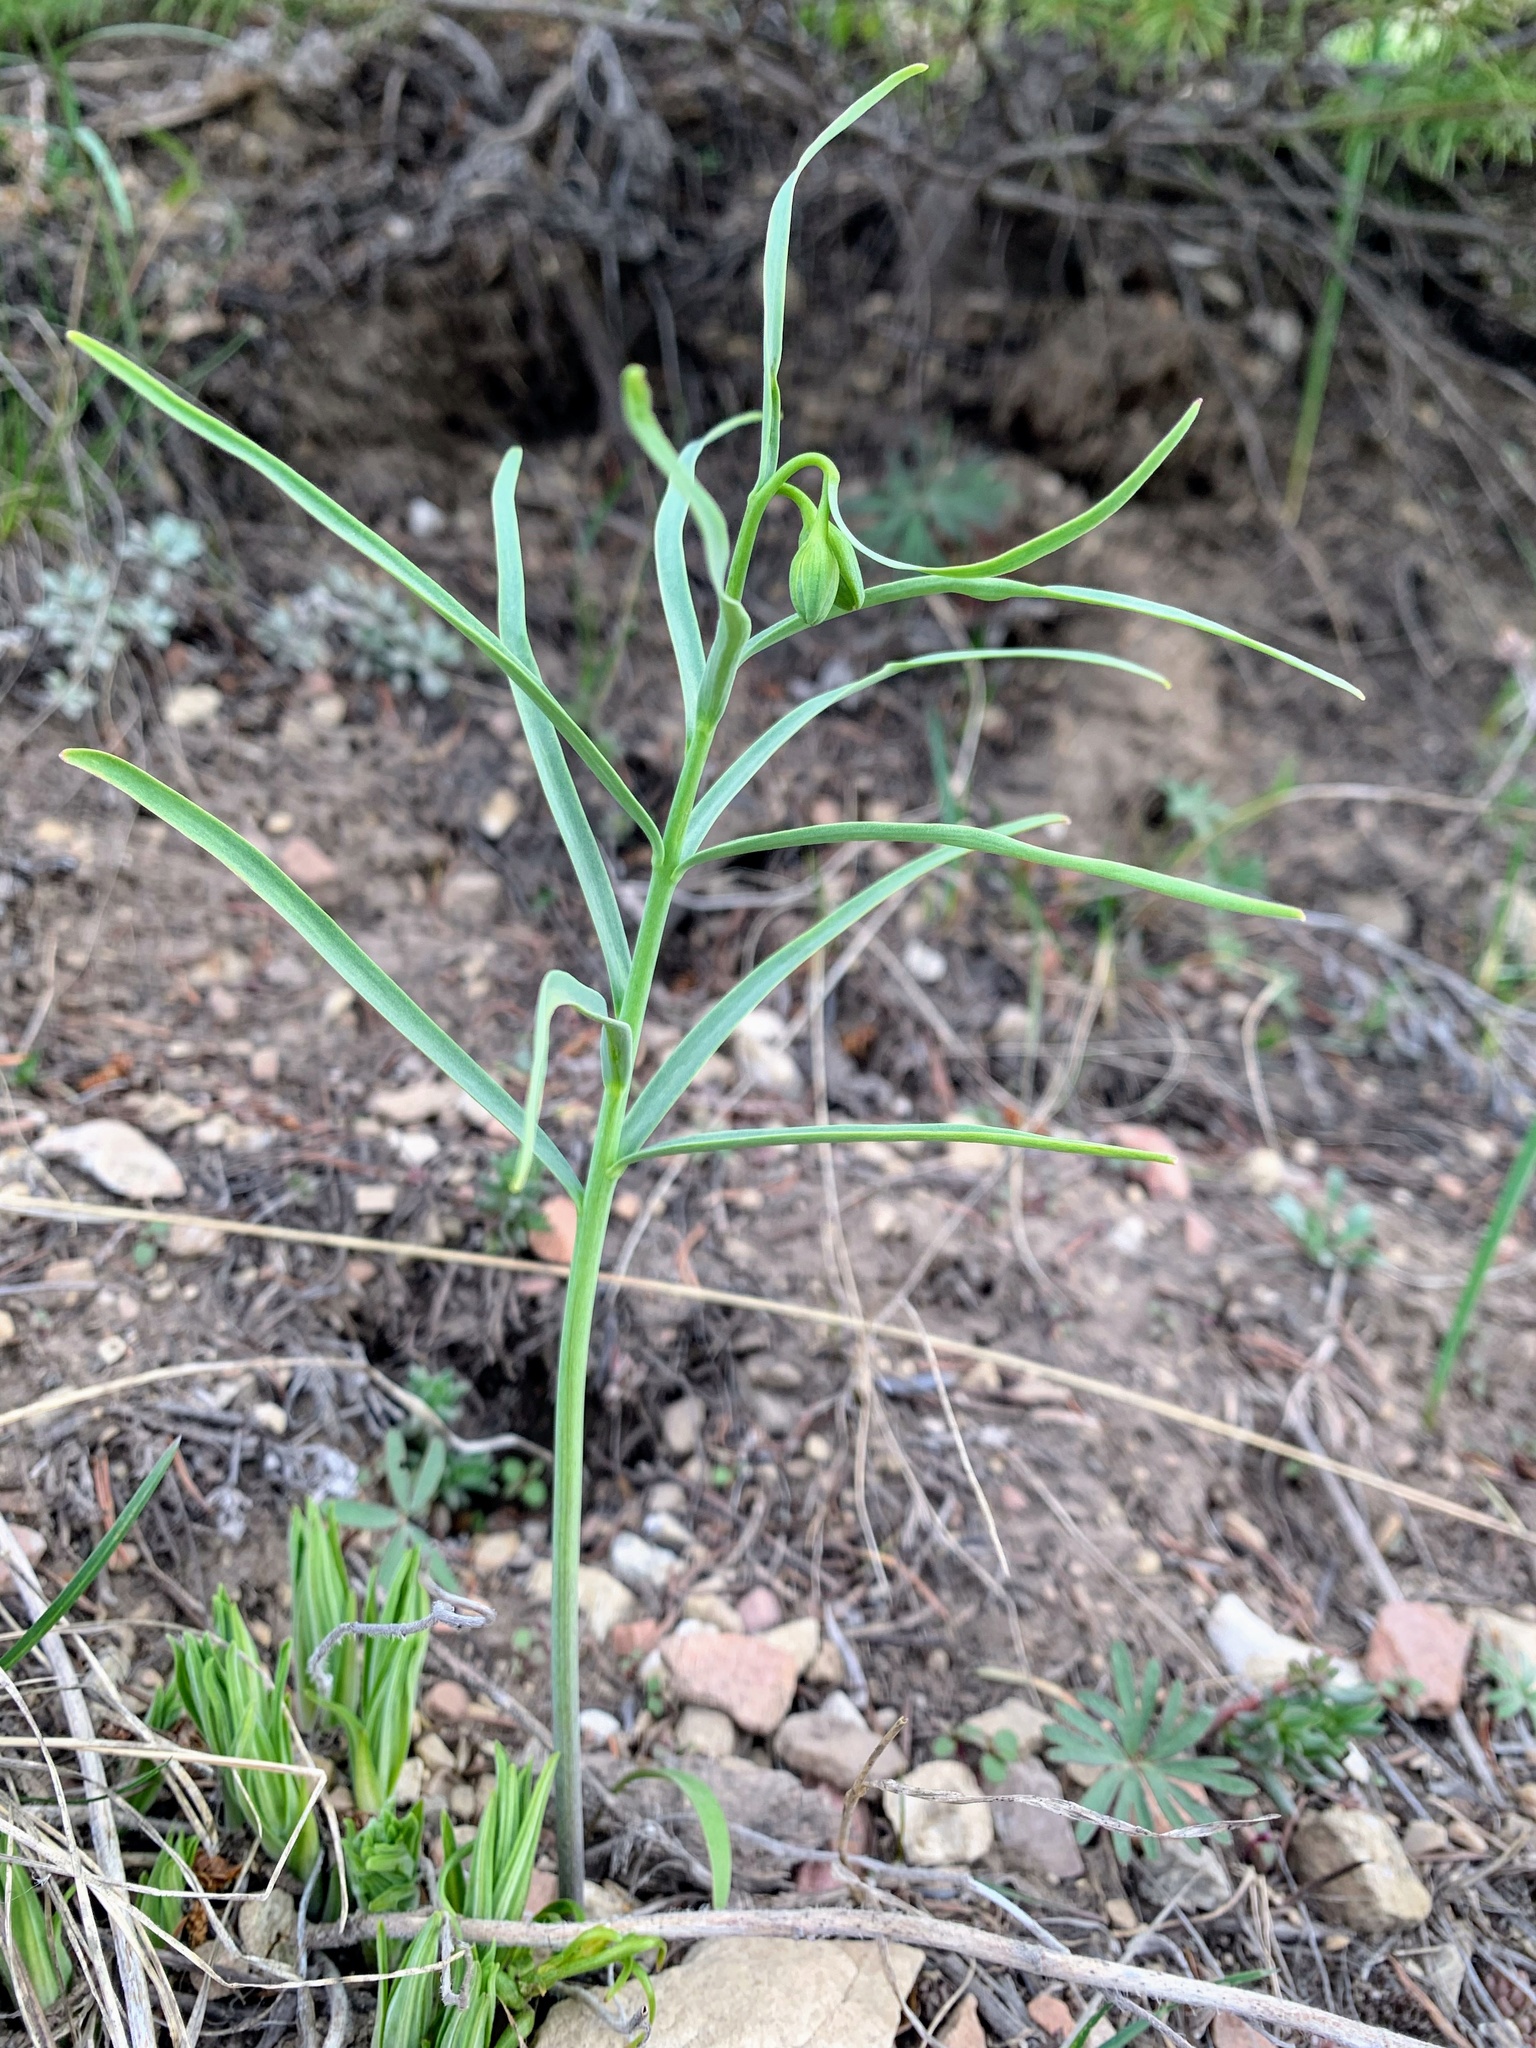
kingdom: Plantae
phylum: Tracheophyta
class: Liliopsida
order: Liliales
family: Liliaceae
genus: Fritillaria
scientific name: Fritillaria atropurpurea
